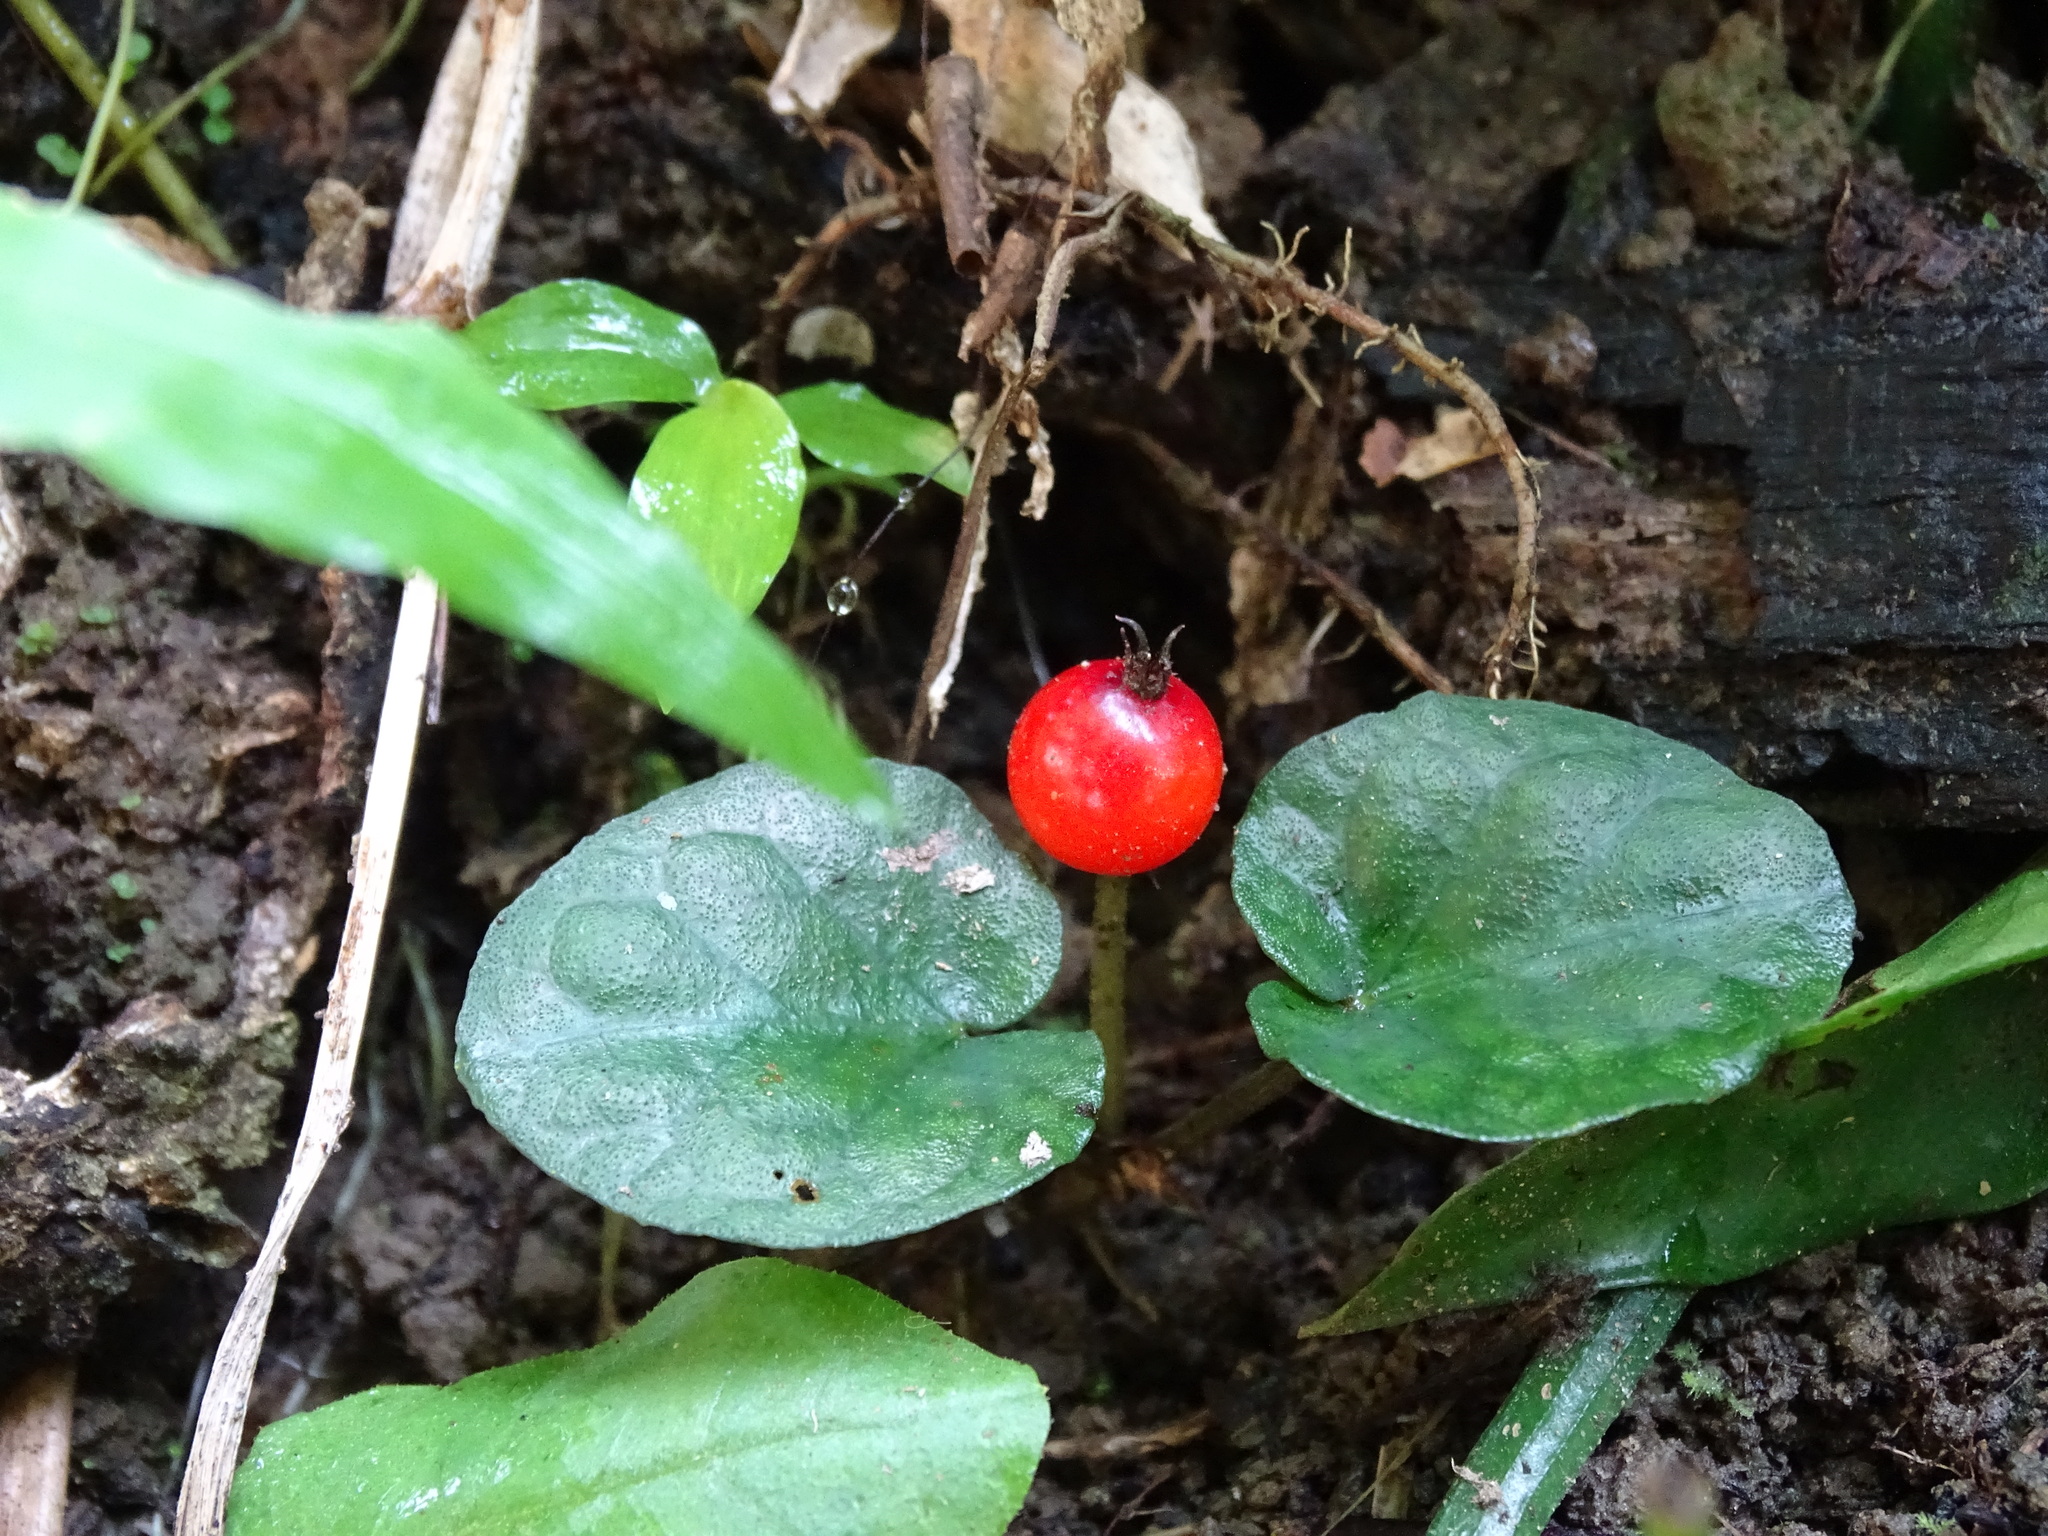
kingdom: Plantae
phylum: Tracheophyta
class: Magnoliopsida
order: Gentianales
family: Rubiaceae
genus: Geophila
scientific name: Geophila herbacea
